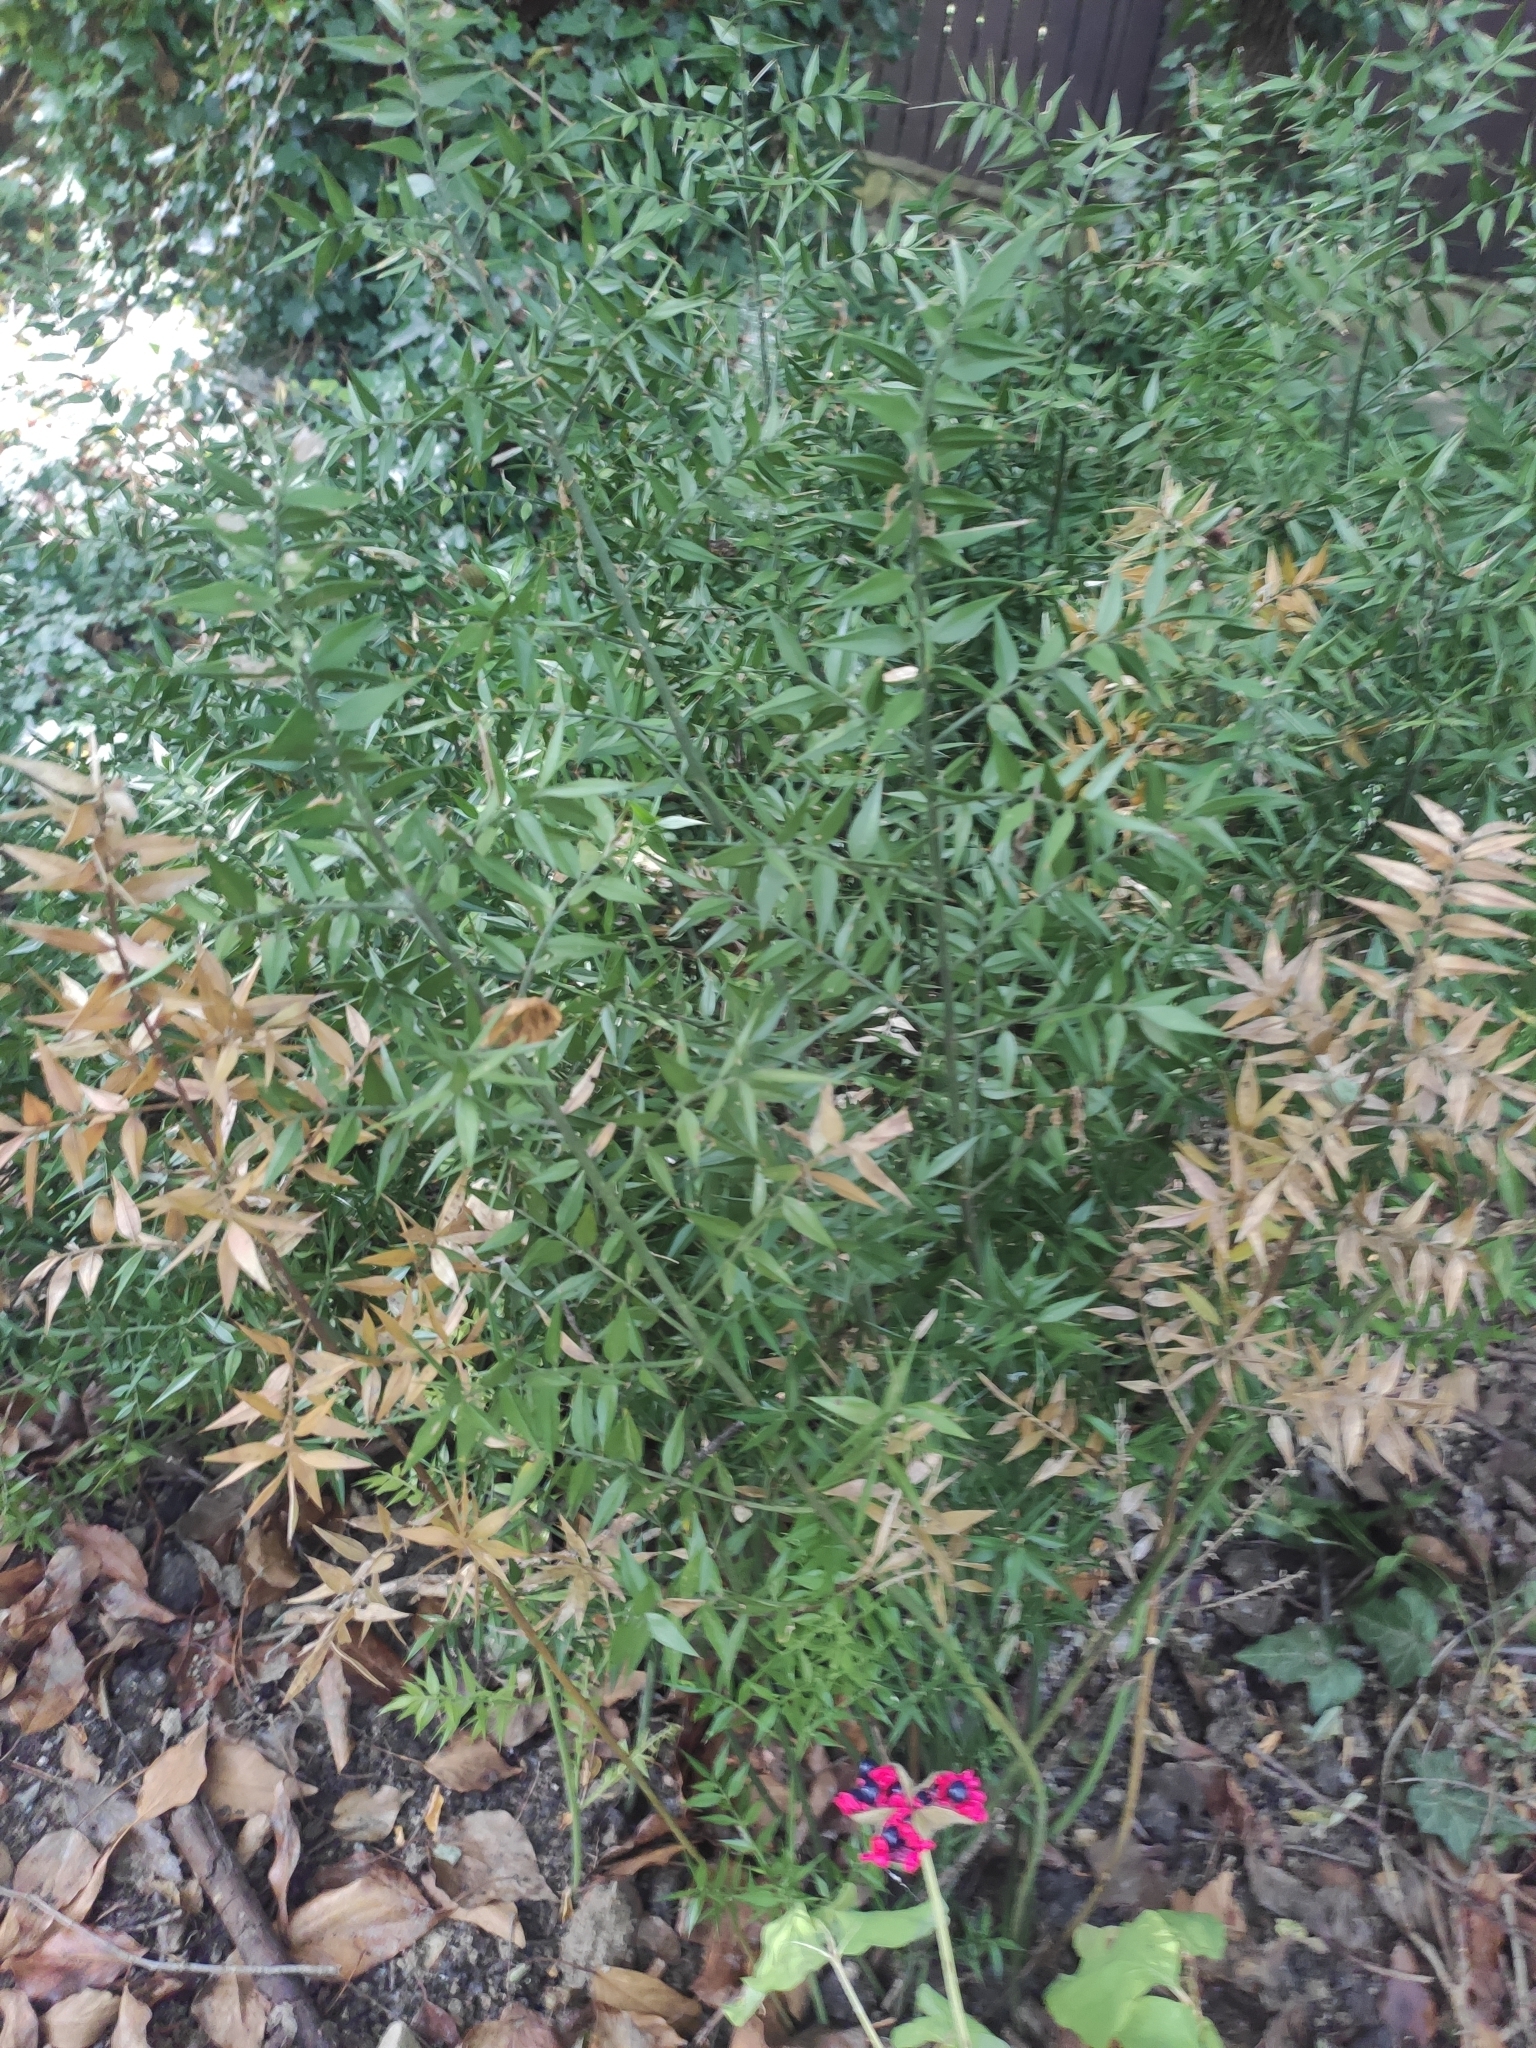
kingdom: Plantae
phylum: Tracheophyta
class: Liliopsida
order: Asparagales
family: Asparagaceae
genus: Ruscus
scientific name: Ruscus aculeatus
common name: Butcher's-broom
